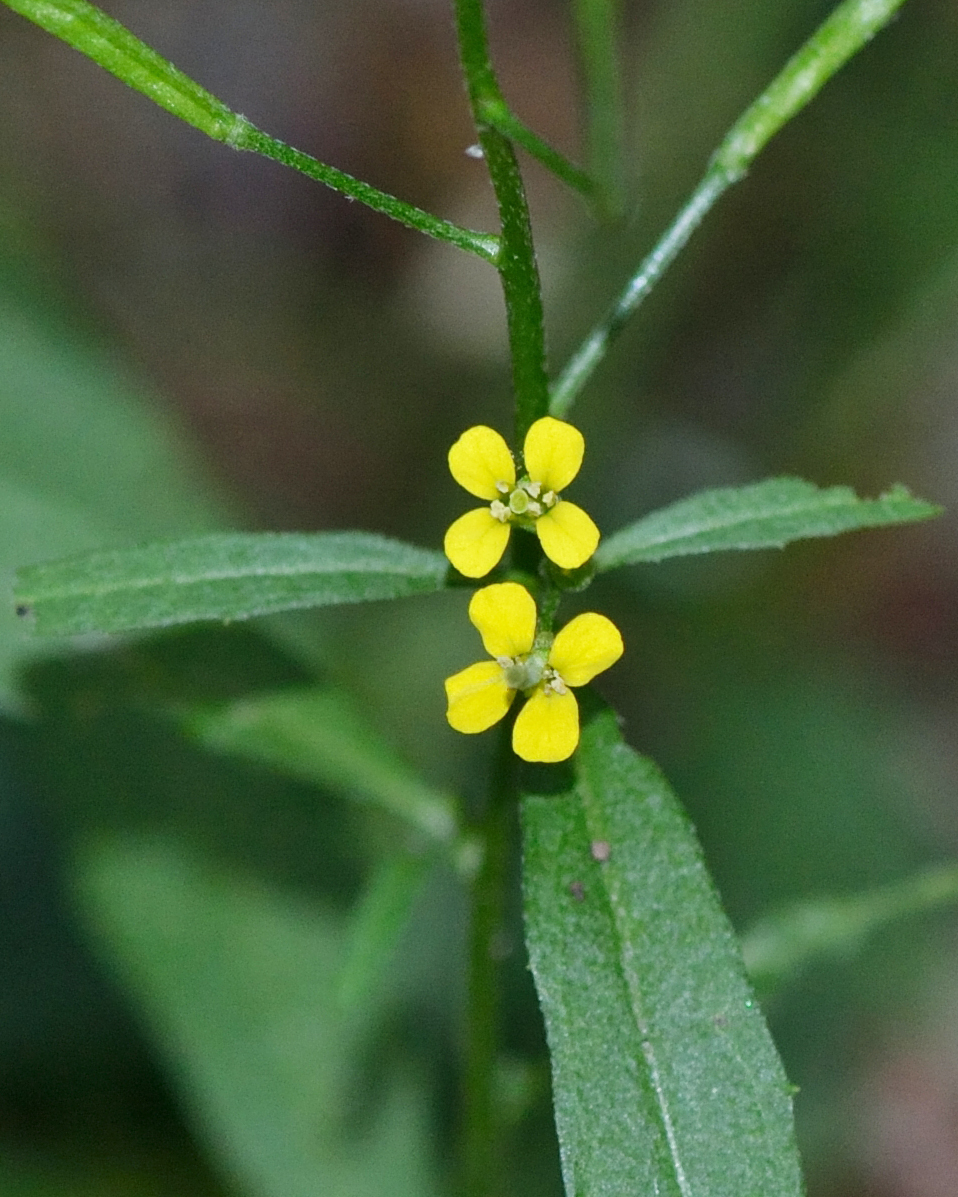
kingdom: Plantae
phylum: Tracheophyta
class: Magnoliopsida
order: Brassicales
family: Brassicaceae
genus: Erysimum
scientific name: Erysimum cheiranthoides
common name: Treacle mustard
